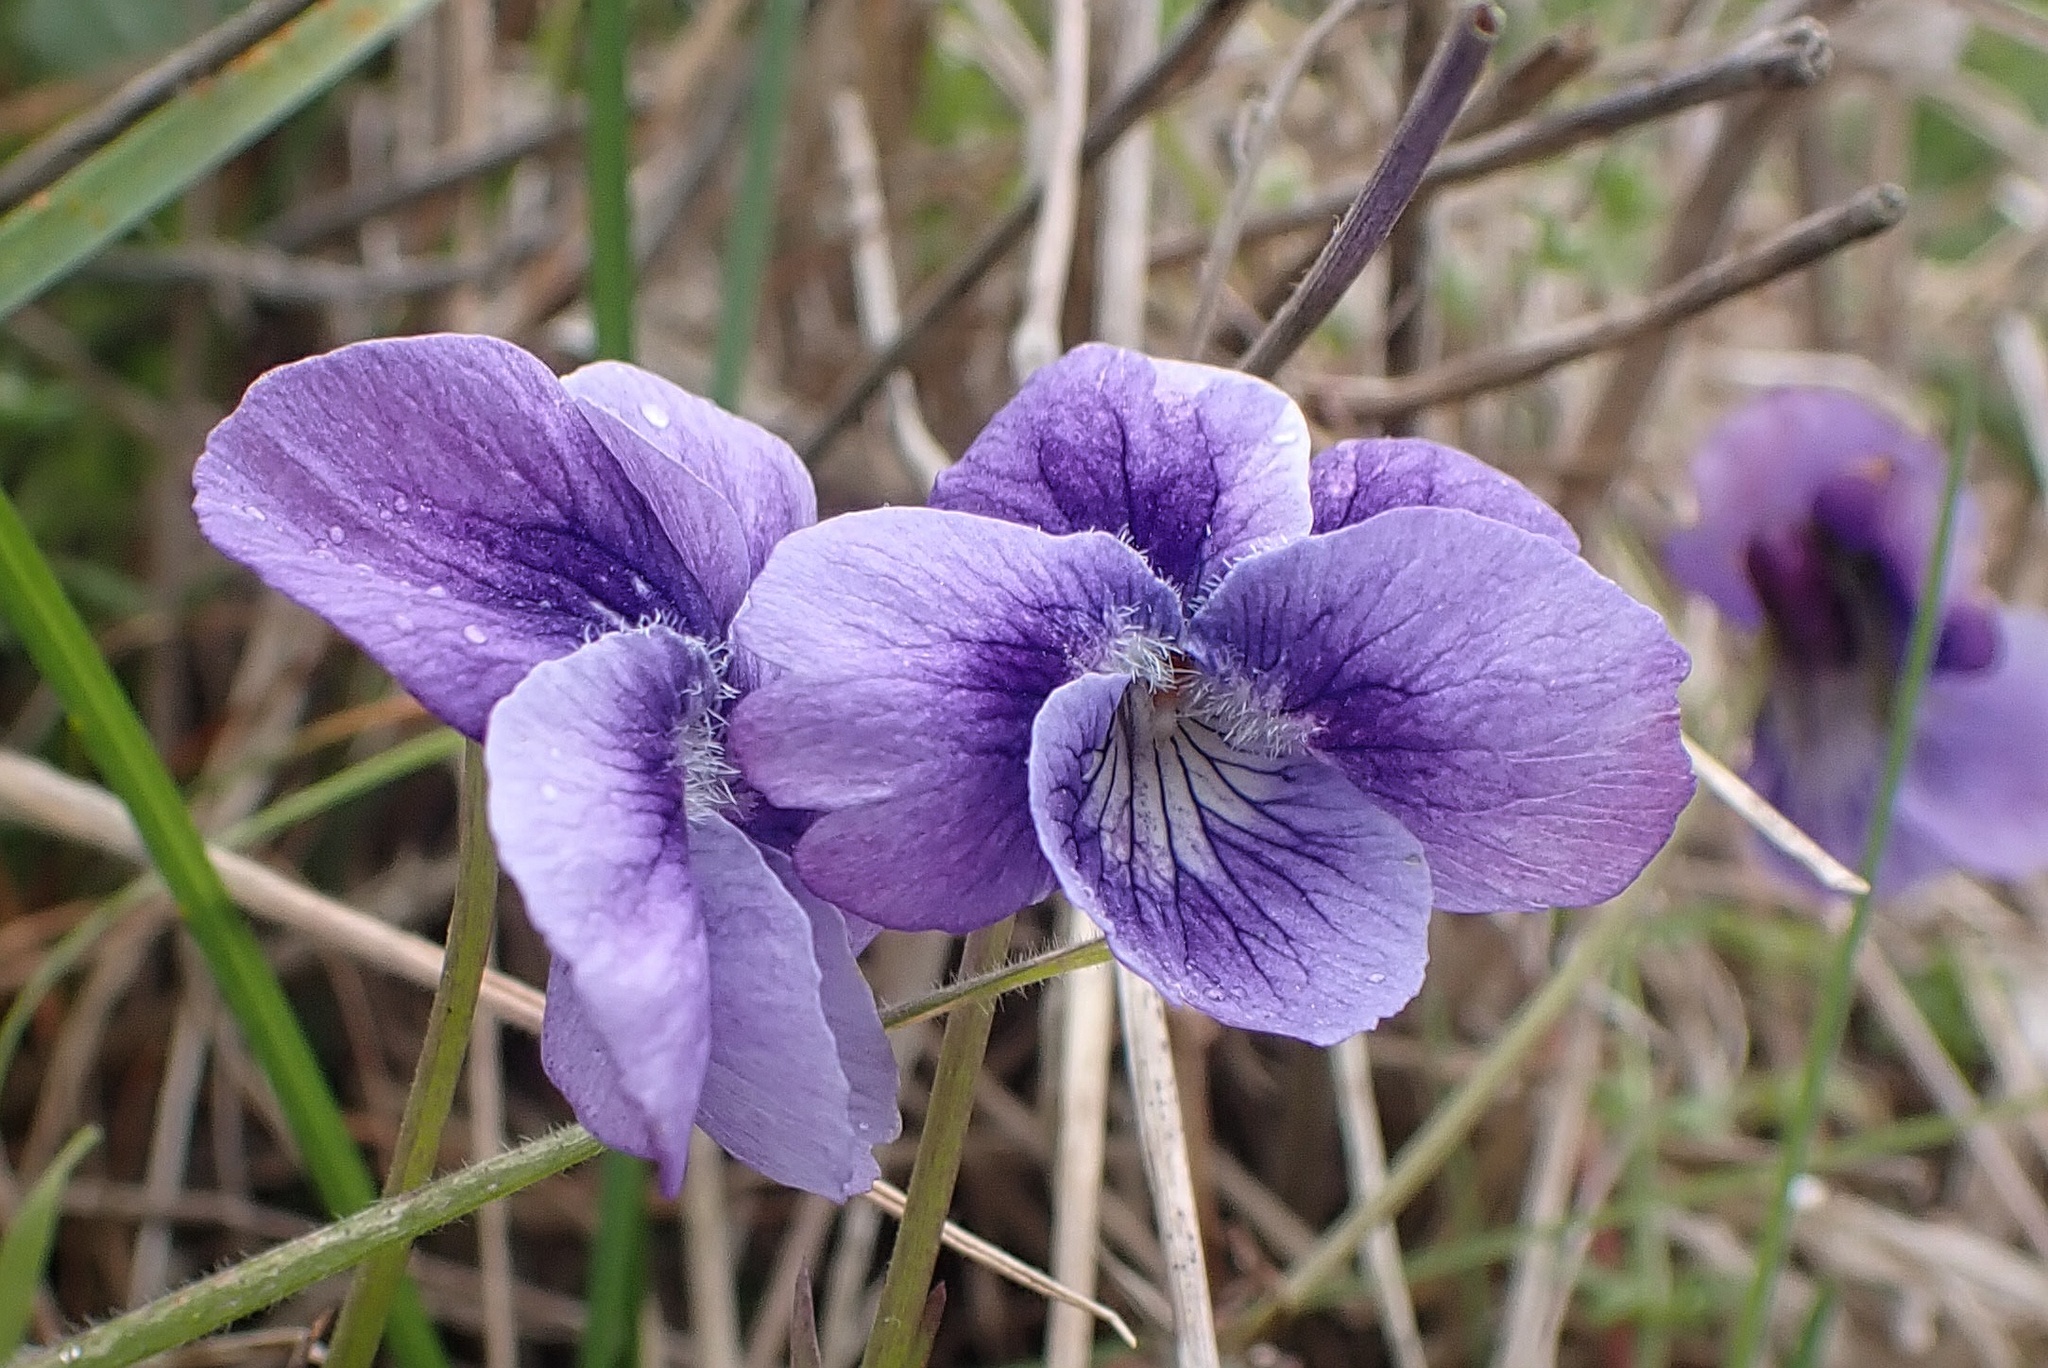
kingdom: Plantae
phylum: Tracheophyta
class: Magnoliopsida
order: Malpighiales
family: Violaceae
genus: Viola
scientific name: Viola adunca
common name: Sand violet
